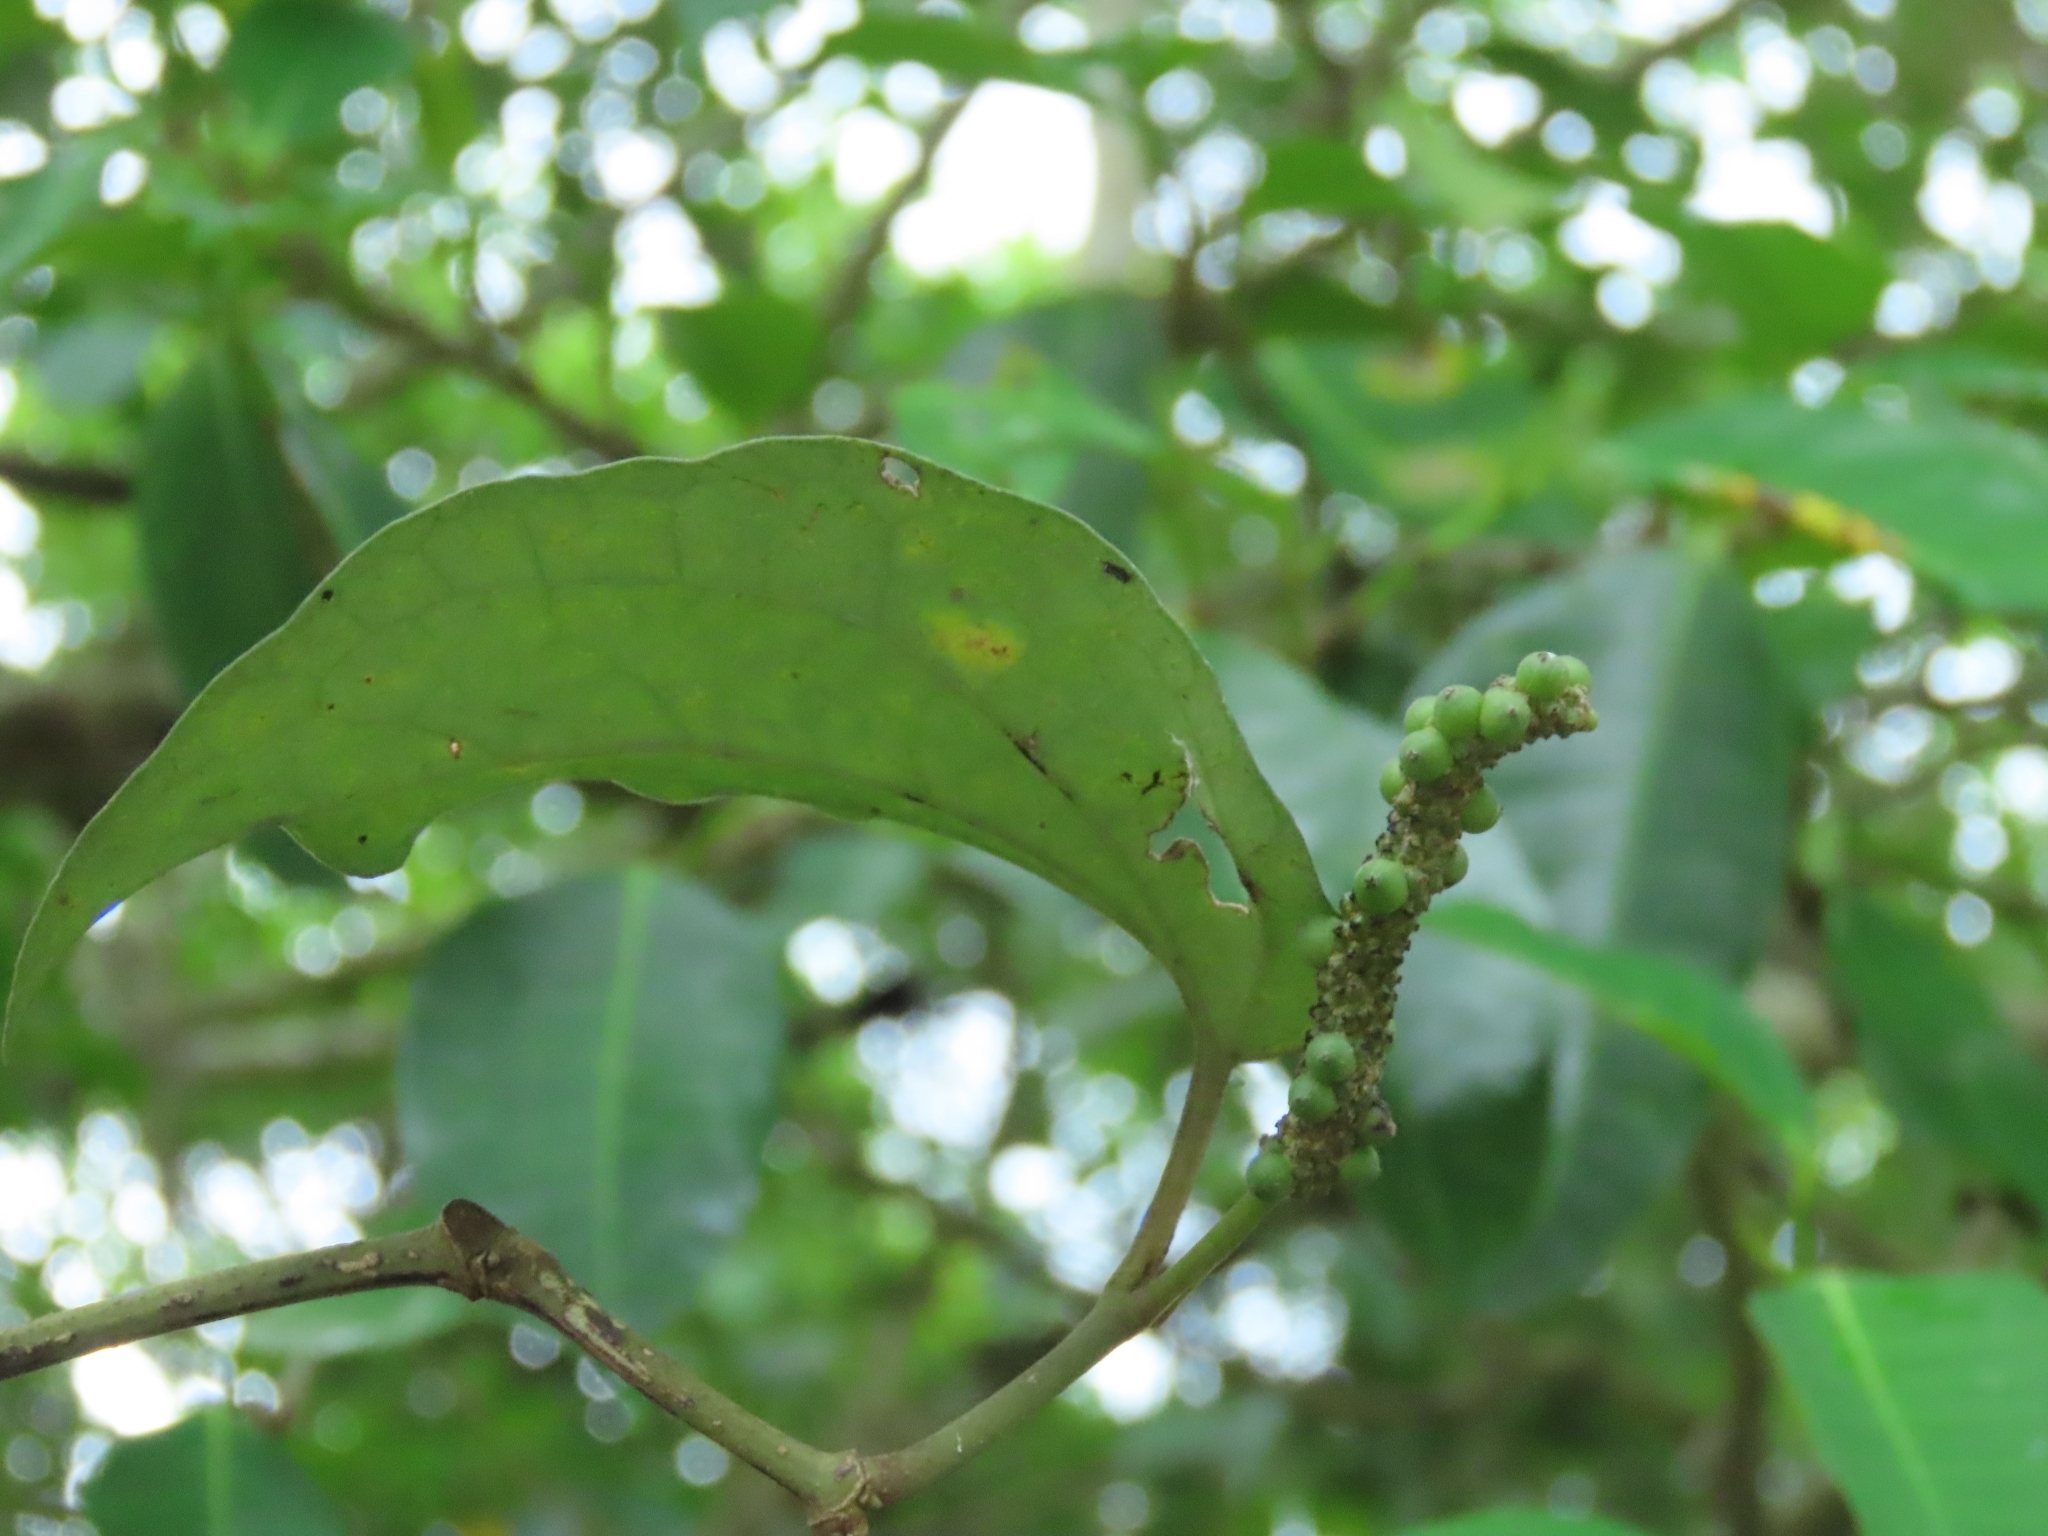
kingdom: Plantae
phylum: Tracheophyta
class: Magnoliopsida
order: Piperales
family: Piperaceae
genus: Piper
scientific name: Piper kadsura
